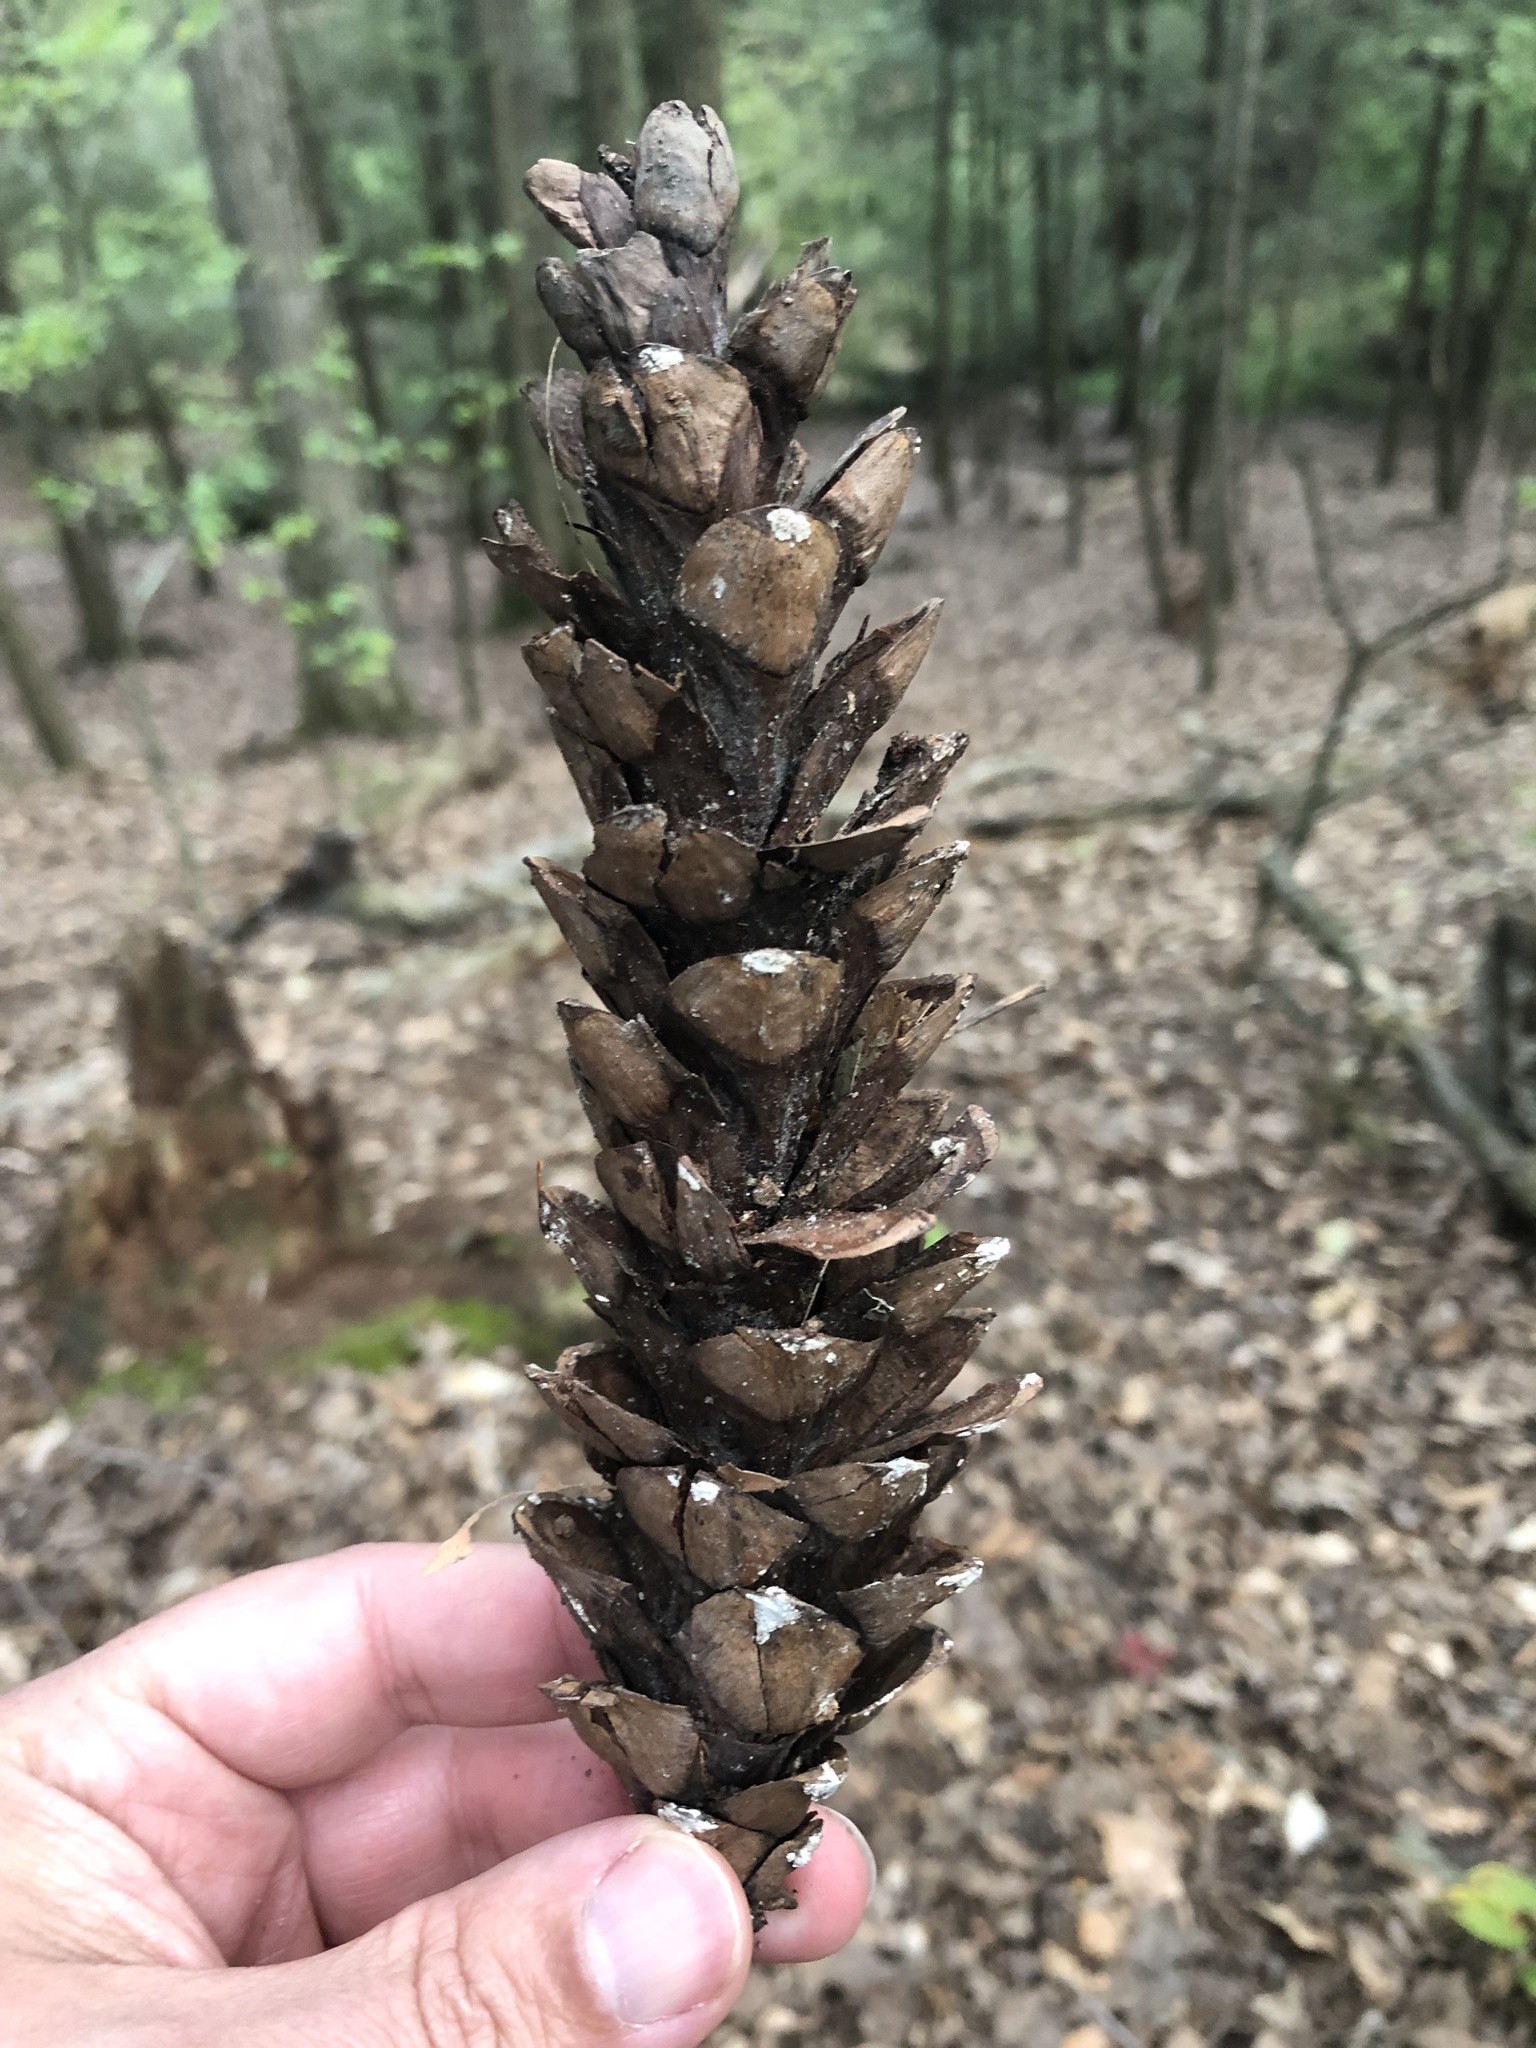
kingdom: Plantae
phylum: Tracheophyta
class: Pinopsida
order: Pinales
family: Pinaceae
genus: Pinus
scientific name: Pinus strobus
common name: Weymouth pine
